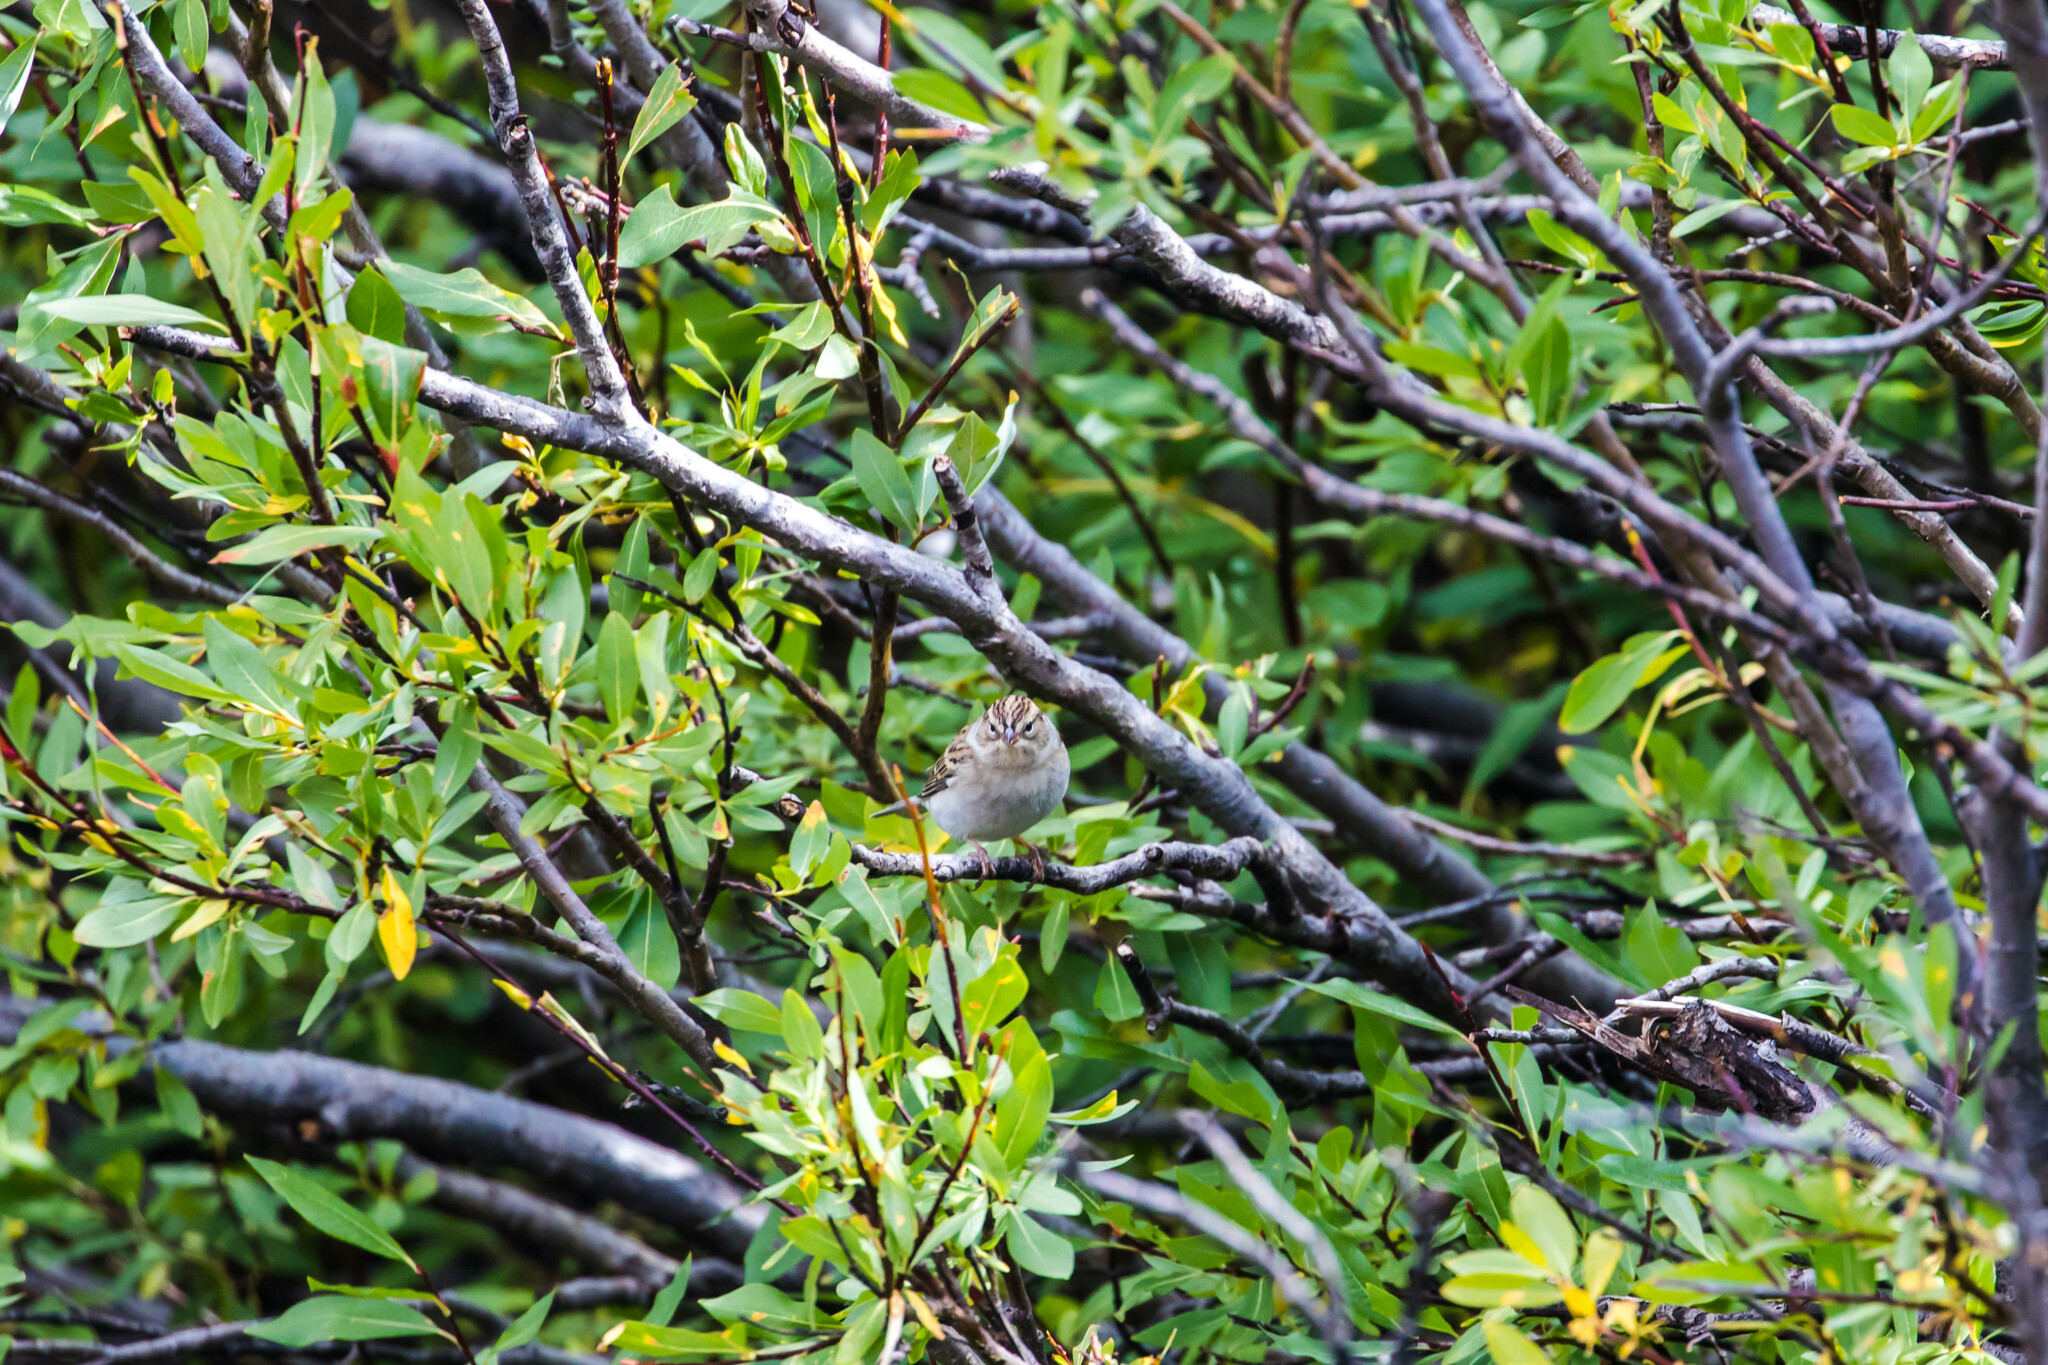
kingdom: Animalia
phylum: Chordata
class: Aves
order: Passeriformes
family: Passerellidae
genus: Spizella
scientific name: Spizella passerina
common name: Chipping sparrow
